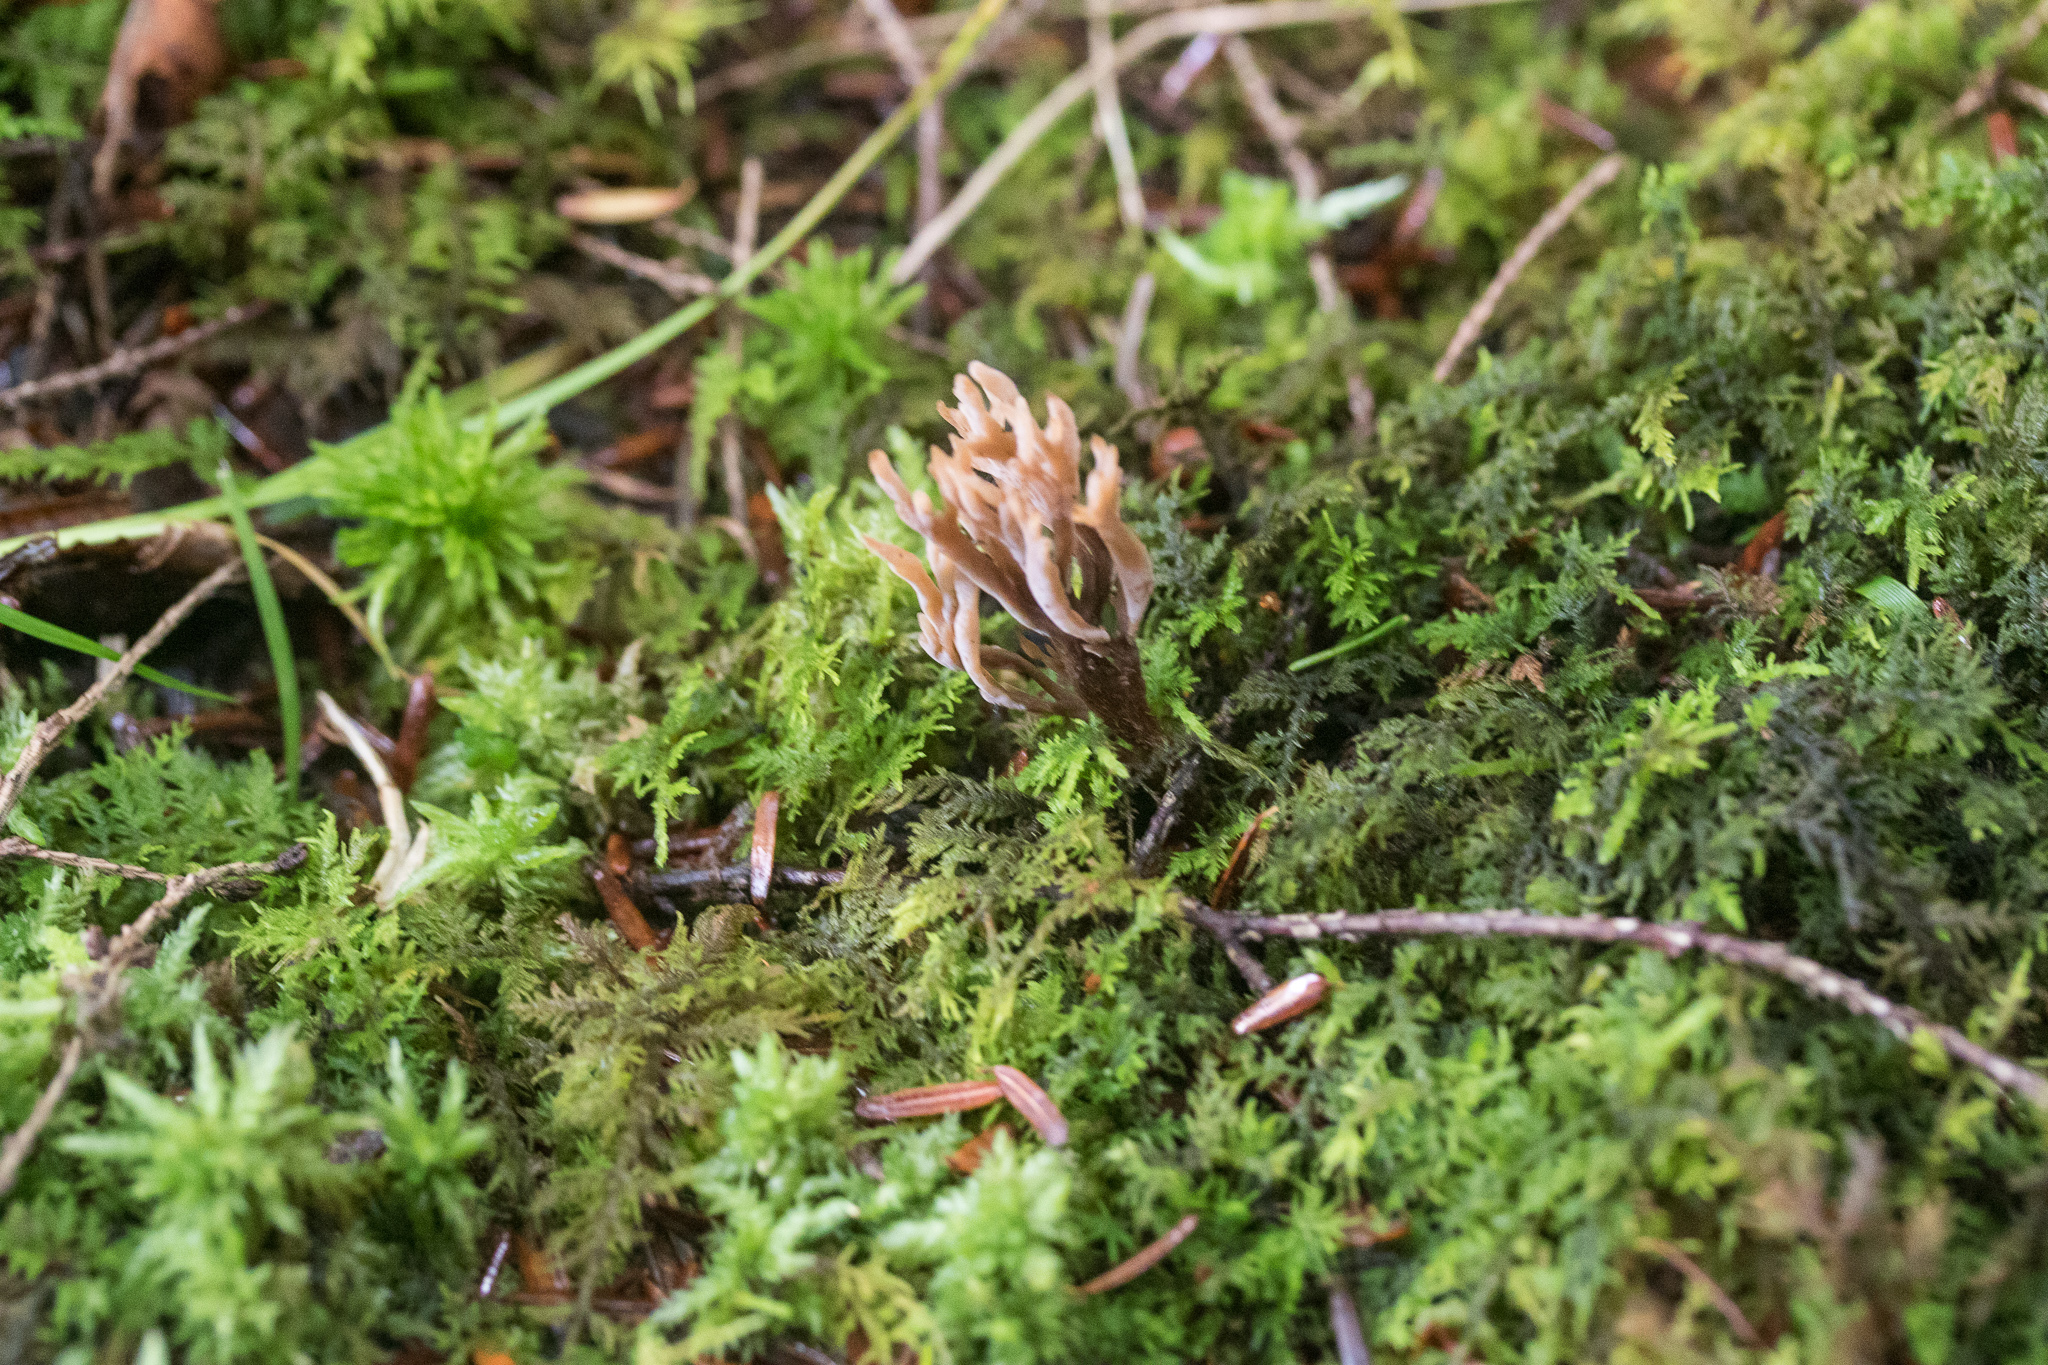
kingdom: Fungi
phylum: Basidiomycota
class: Agaricomycetes
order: Cantharellales
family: Hydnaceae
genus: Clavulina
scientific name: Clavulina ornatipes
